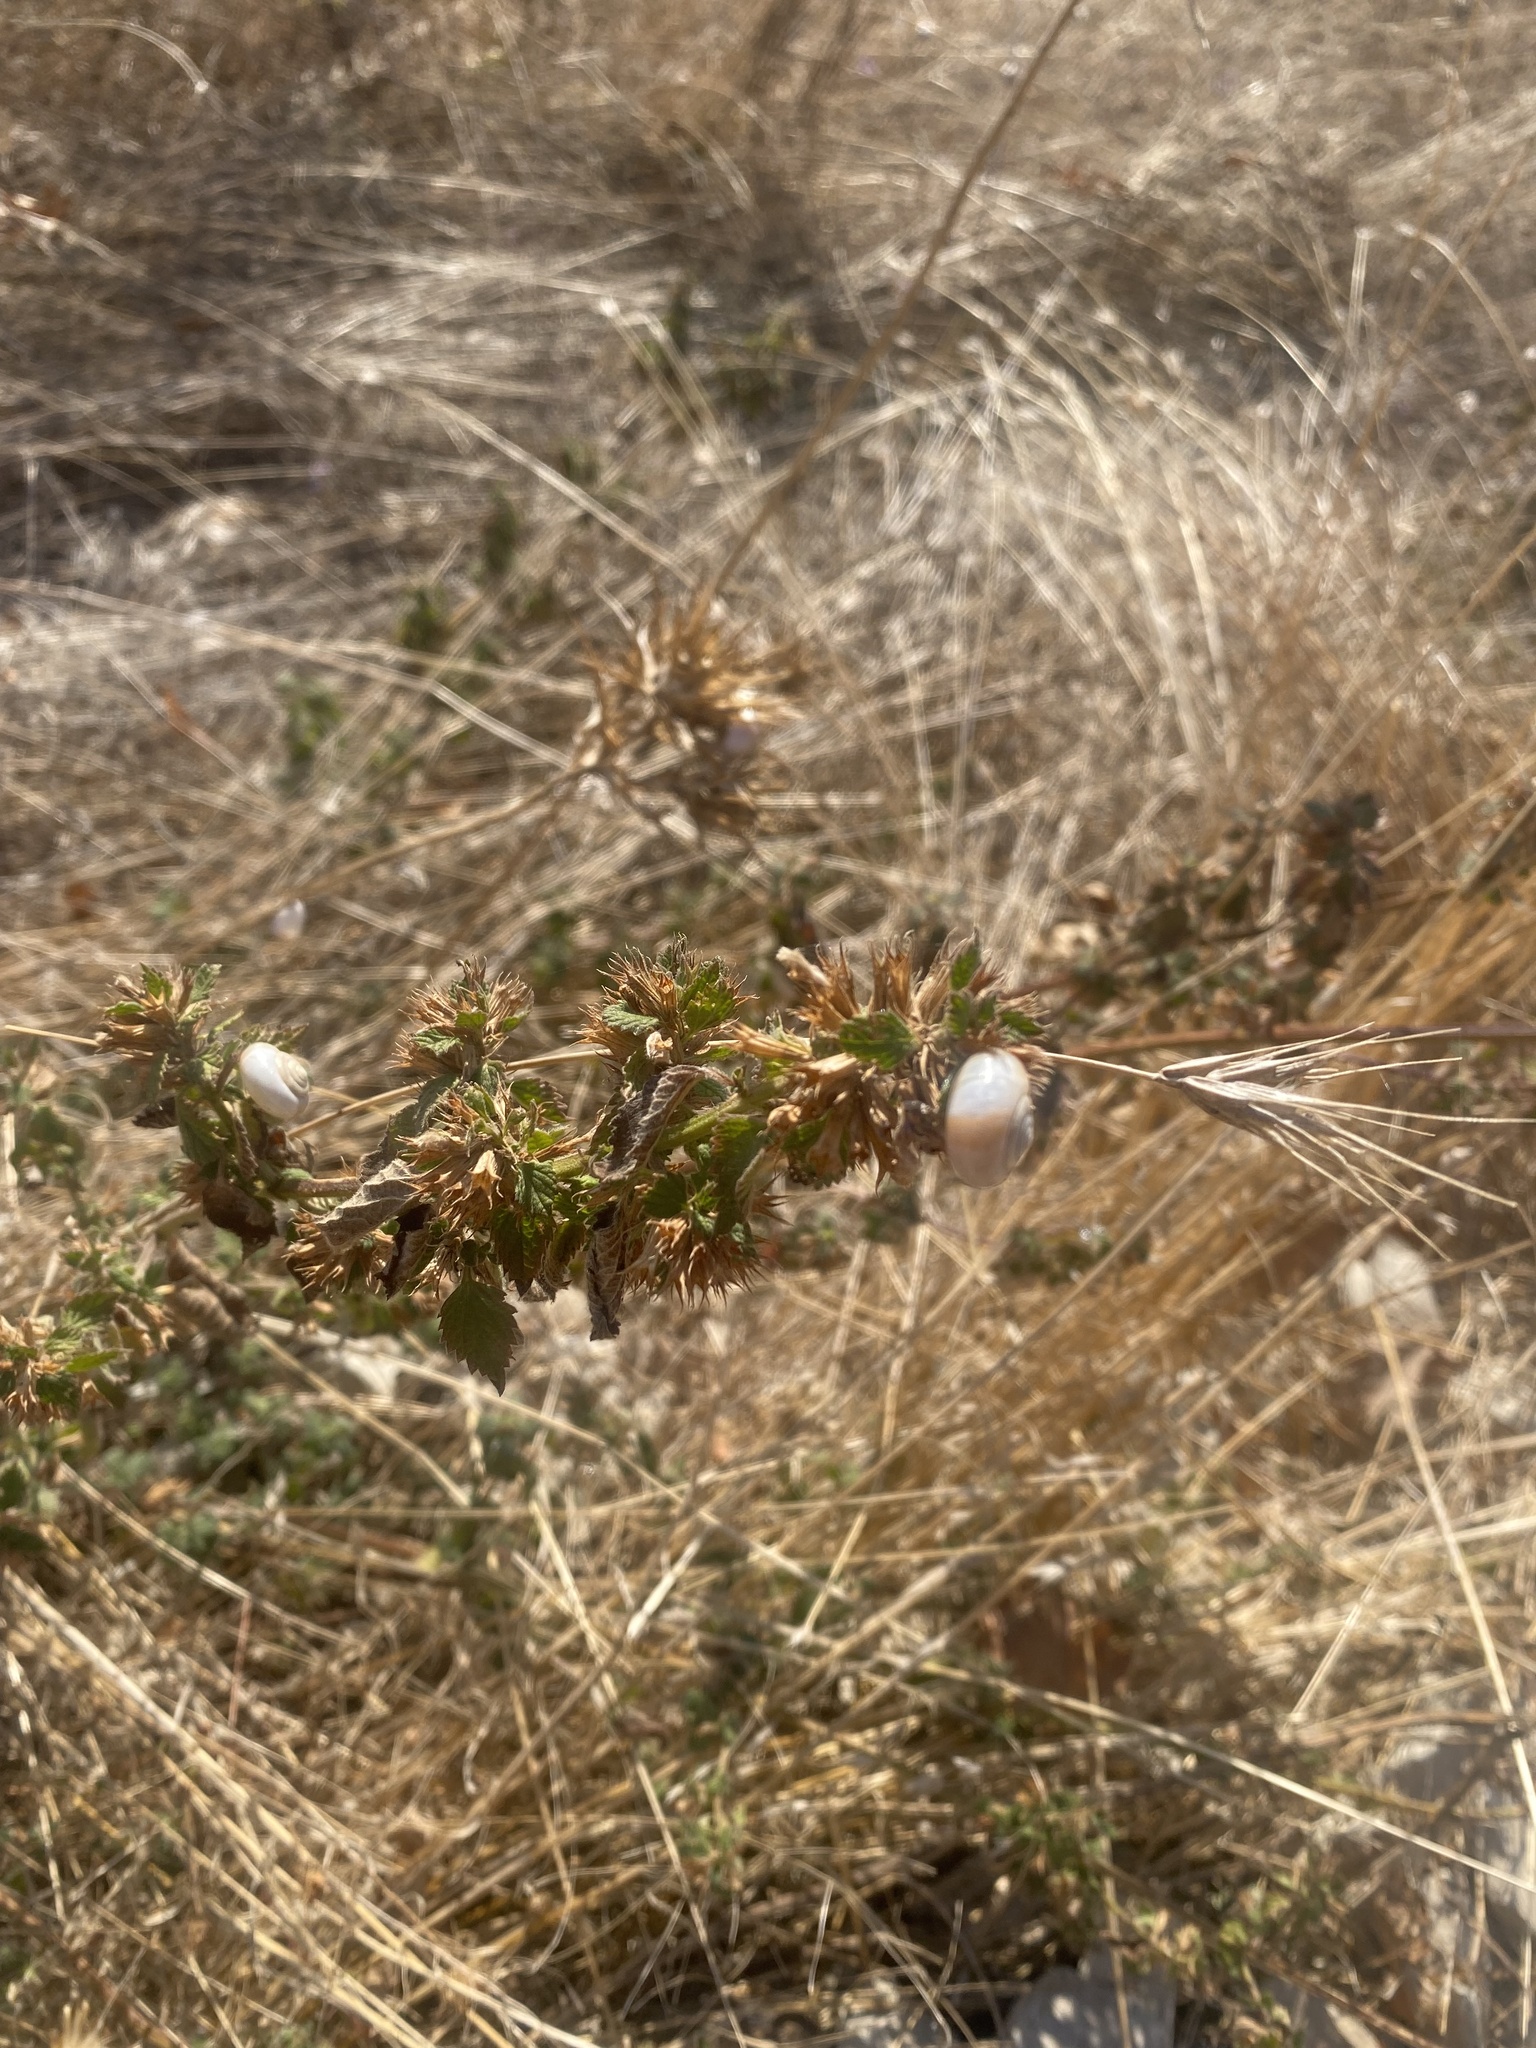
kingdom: Plantae
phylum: Tracheophyta
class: Magnoliopsida
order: Lamiales
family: Lamiaceae
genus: Ballota
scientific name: Ballota nigra
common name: Black horehound
